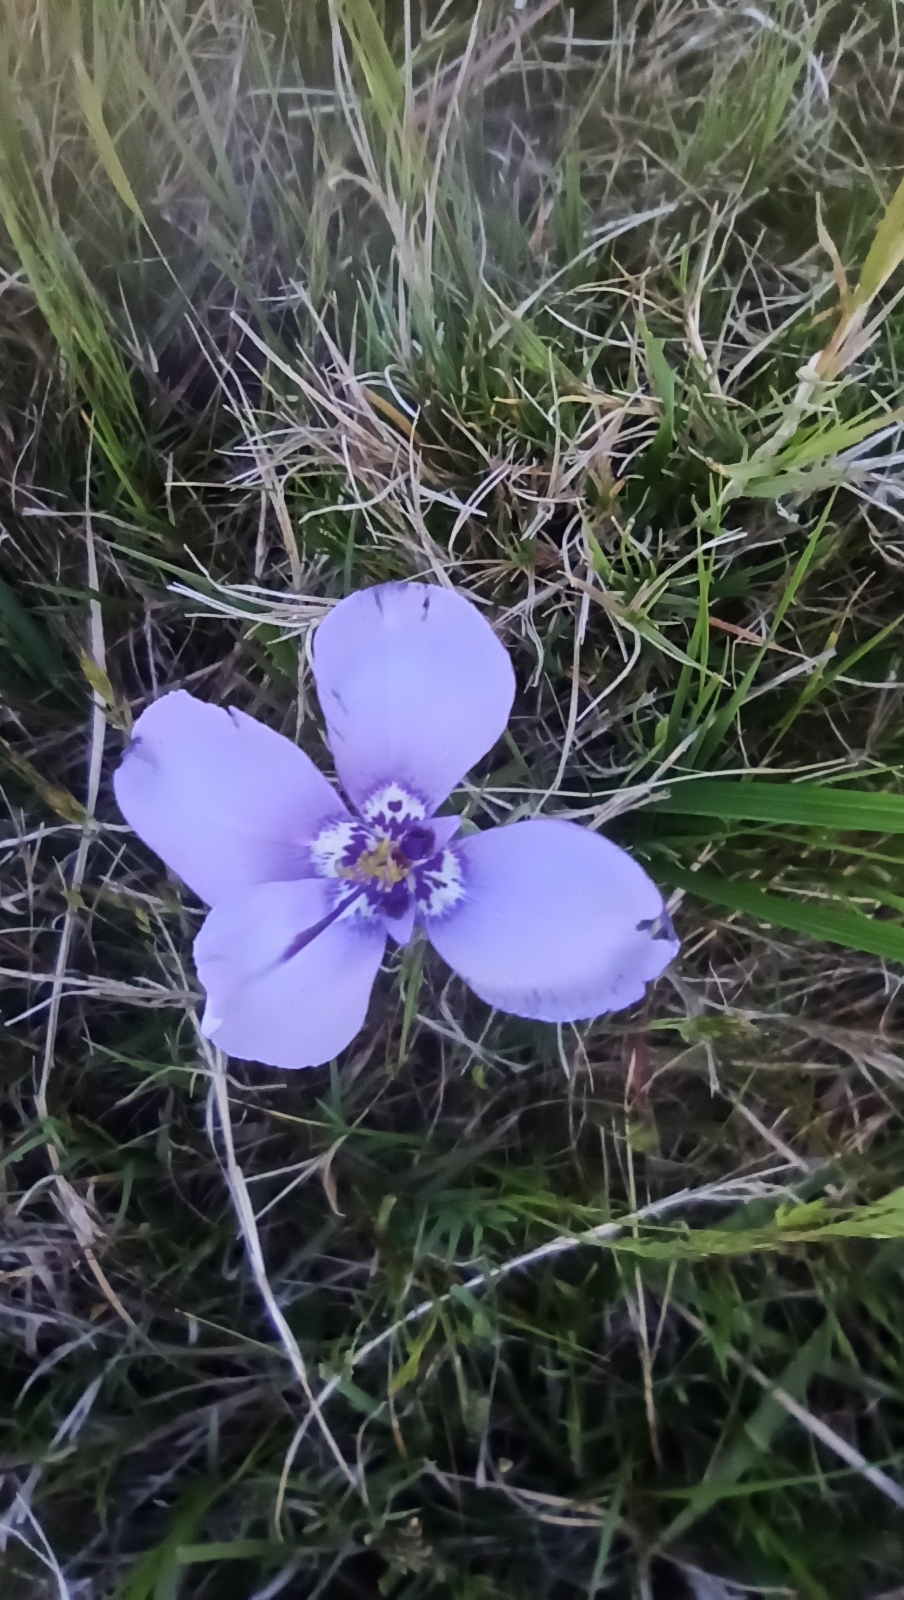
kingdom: Plantae
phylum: Tracheophyta
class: Liliopsida
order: Asparagales
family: Iridaceae
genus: Herbertia
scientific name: Herbertia lahue
